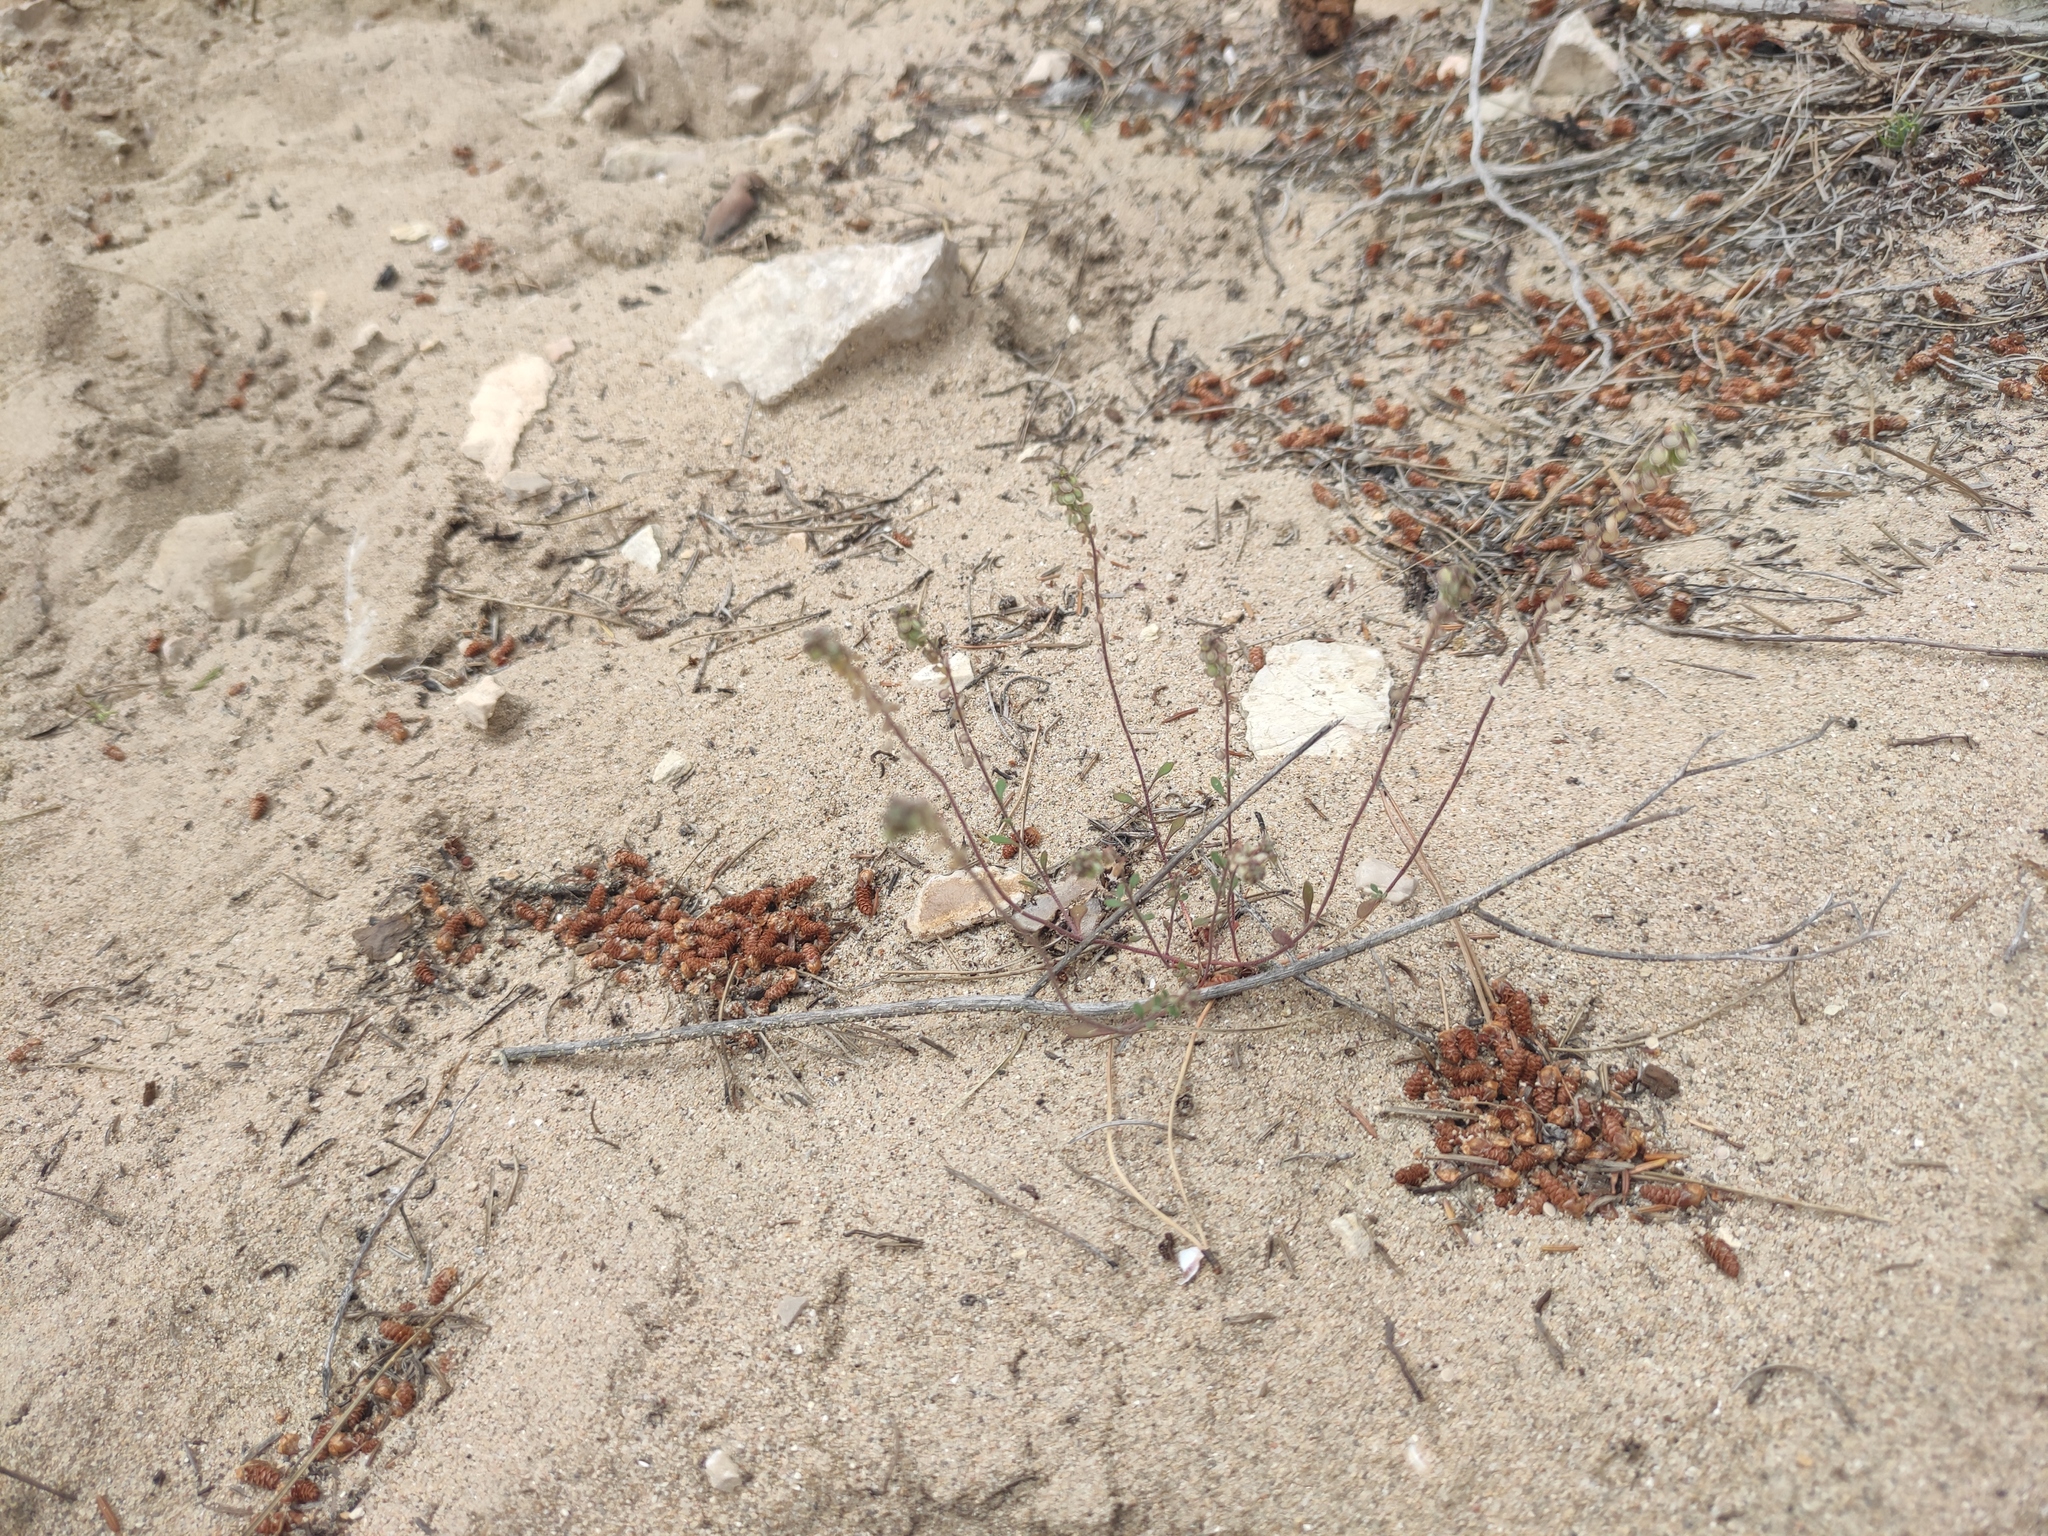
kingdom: Plantae
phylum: Tracheophyta
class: Magnoliopsida
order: Brassicales
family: Brassicaceae
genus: Clypeola
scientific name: Clypeola jonthlaspi
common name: Disk cress
